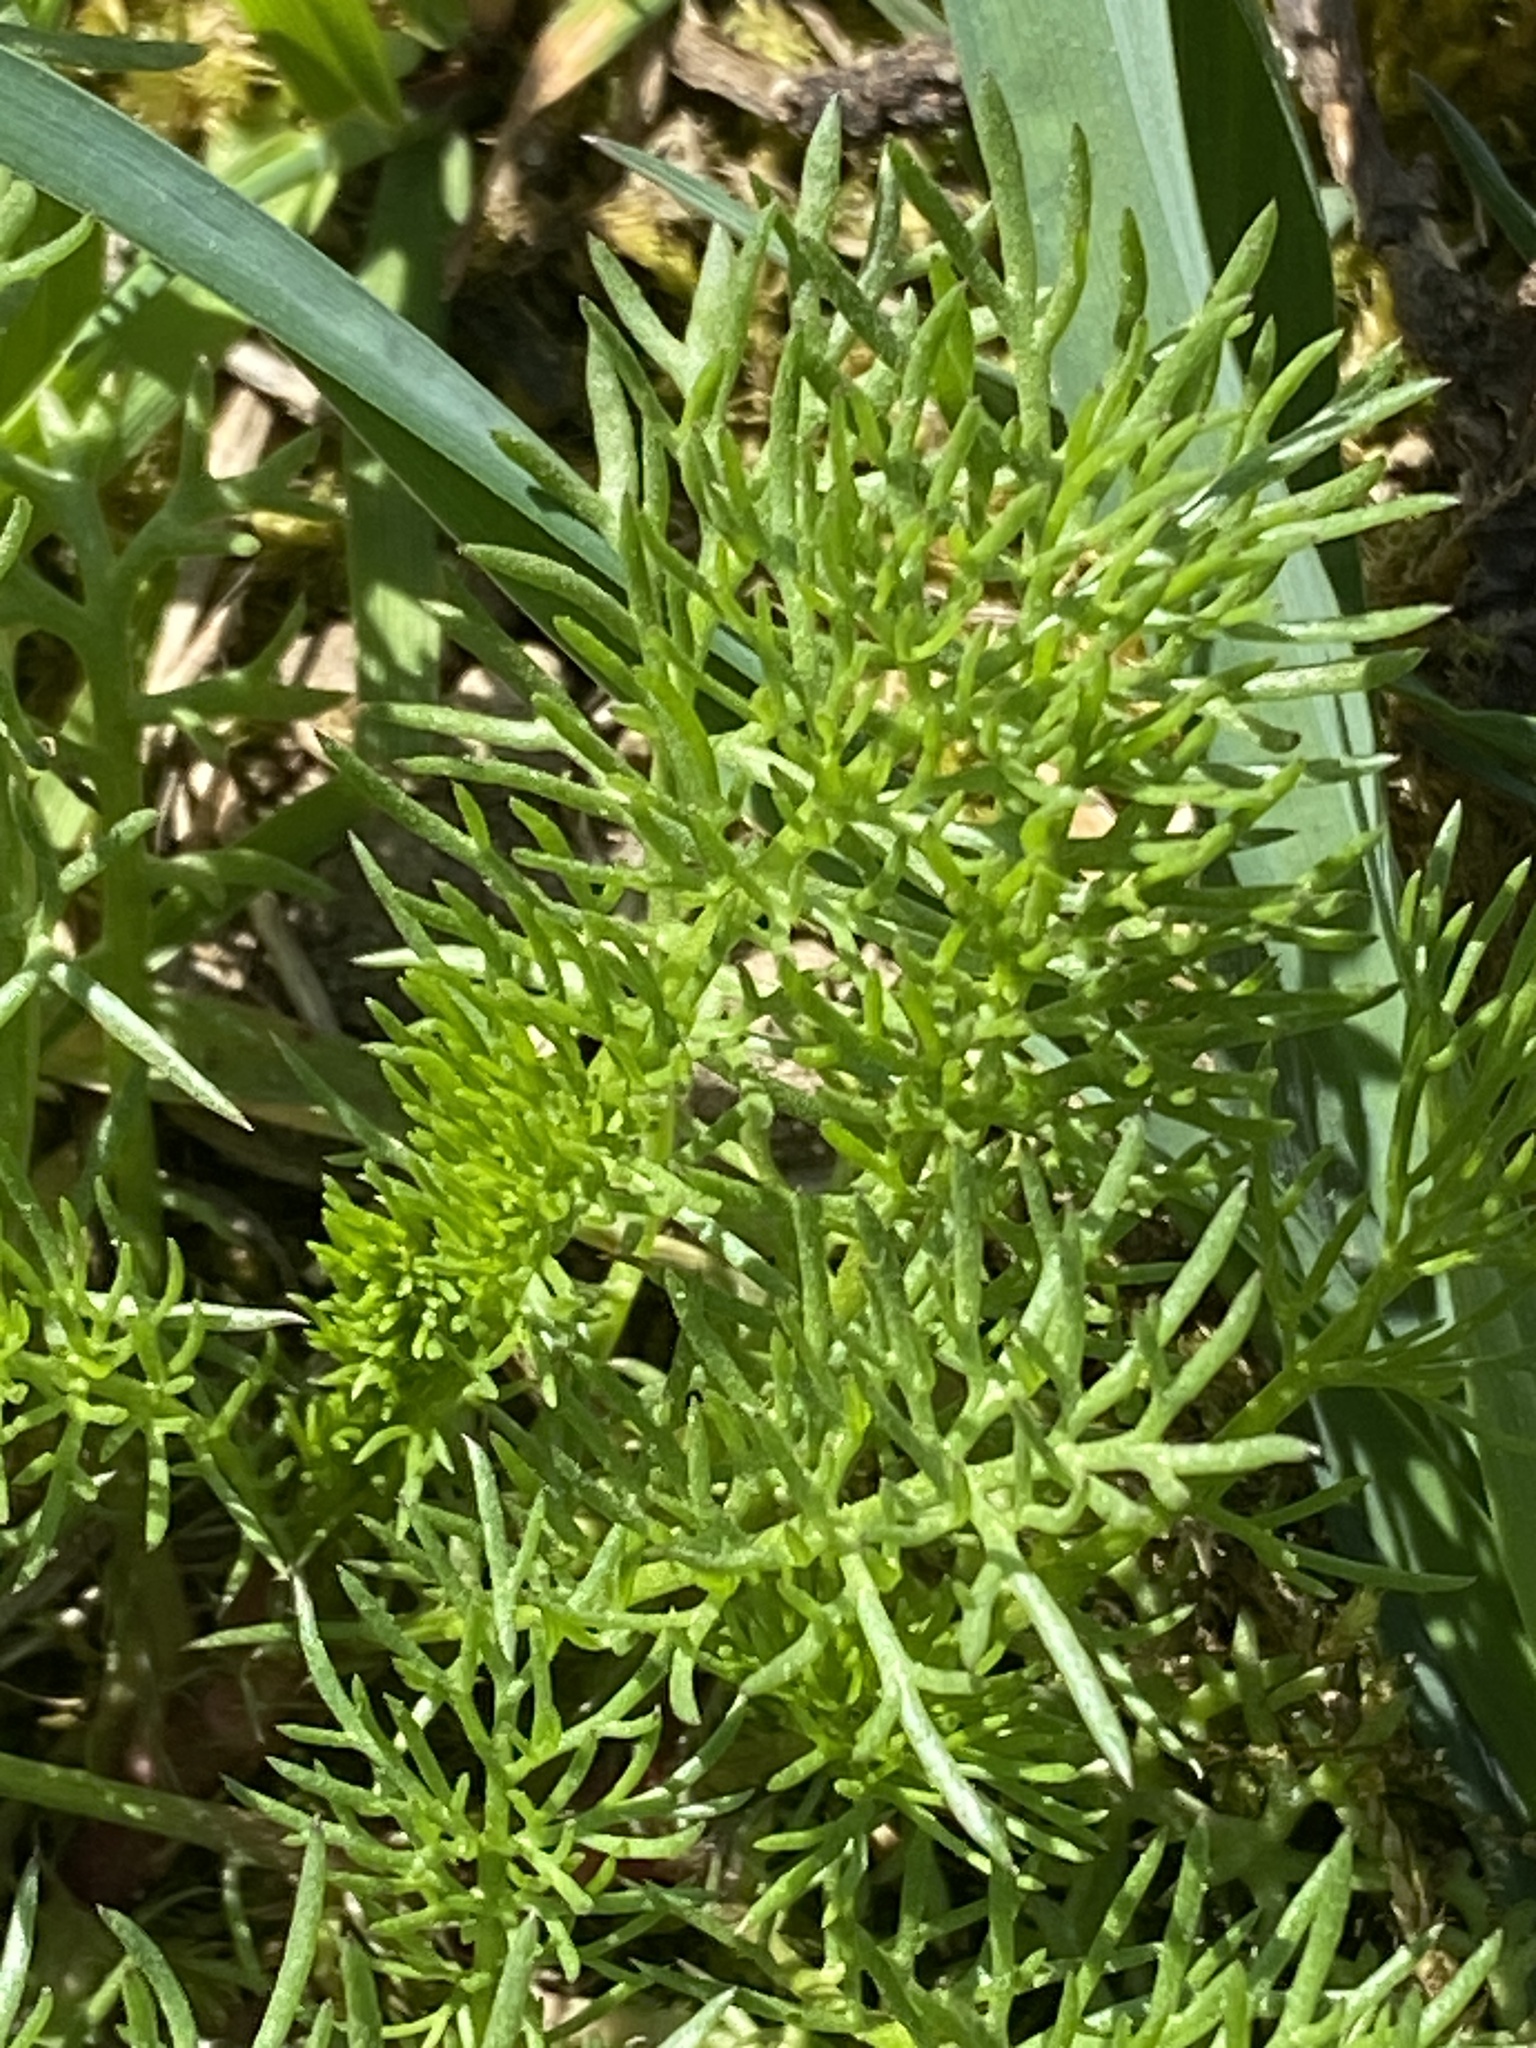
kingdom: Plantae
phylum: Tracheophyta
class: Magnoliopsida
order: Asterales
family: Asteraceae
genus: Tripleurospermum
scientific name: Tripleurospermum inodorum
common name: Scentless mayweed
